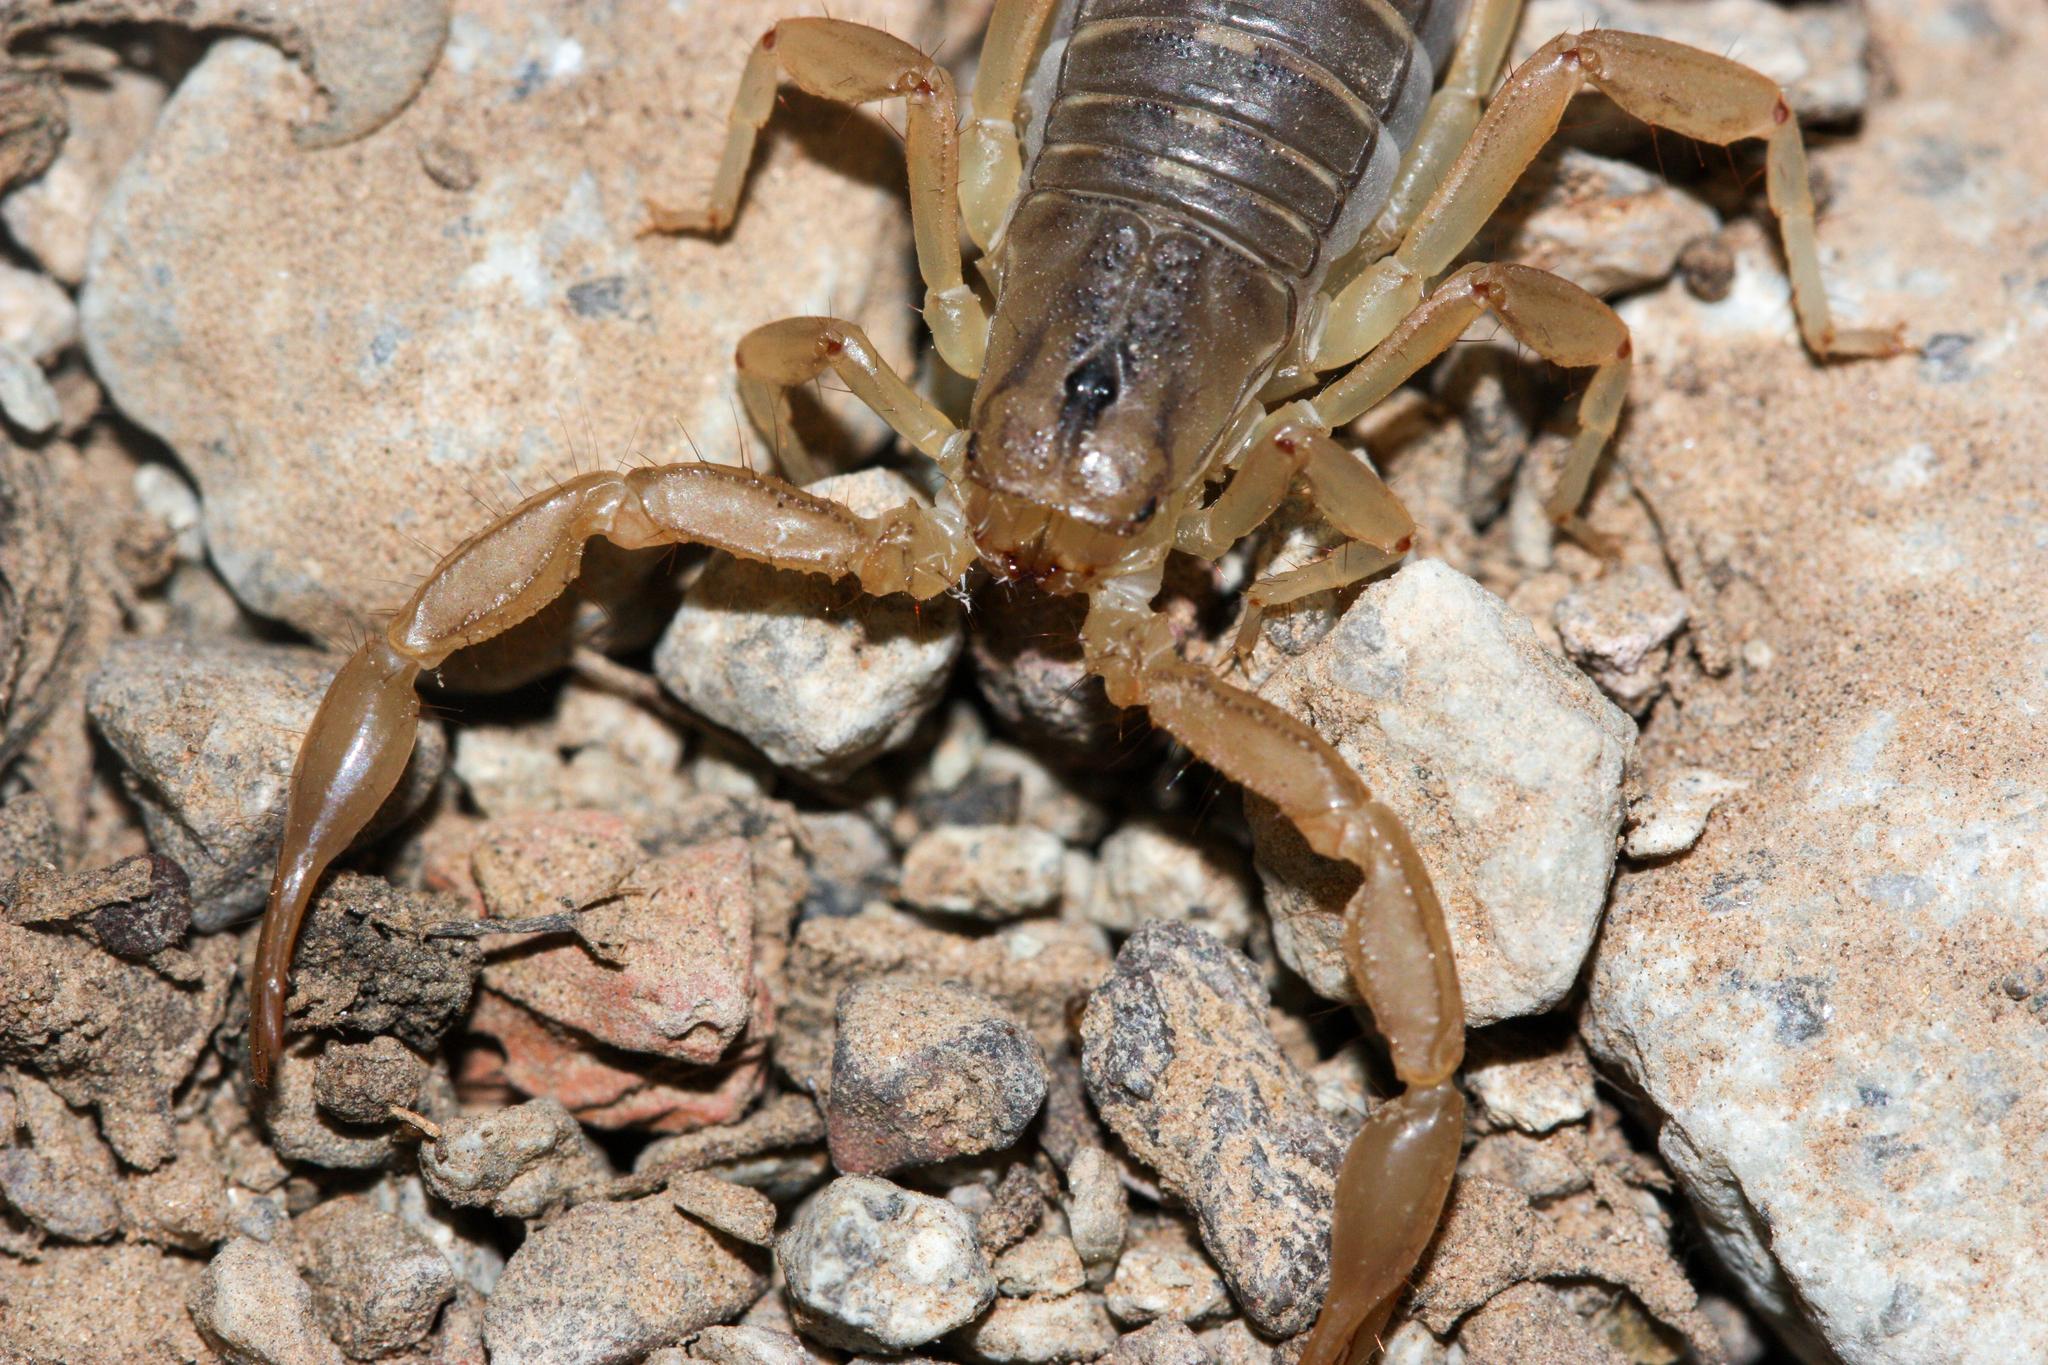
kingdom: Animalia
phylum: Arthropoda
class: Arachnida
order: Scorpiones
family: Vaejovidae
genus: Paravaejovis
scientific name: Paravaejovis spinigerus
